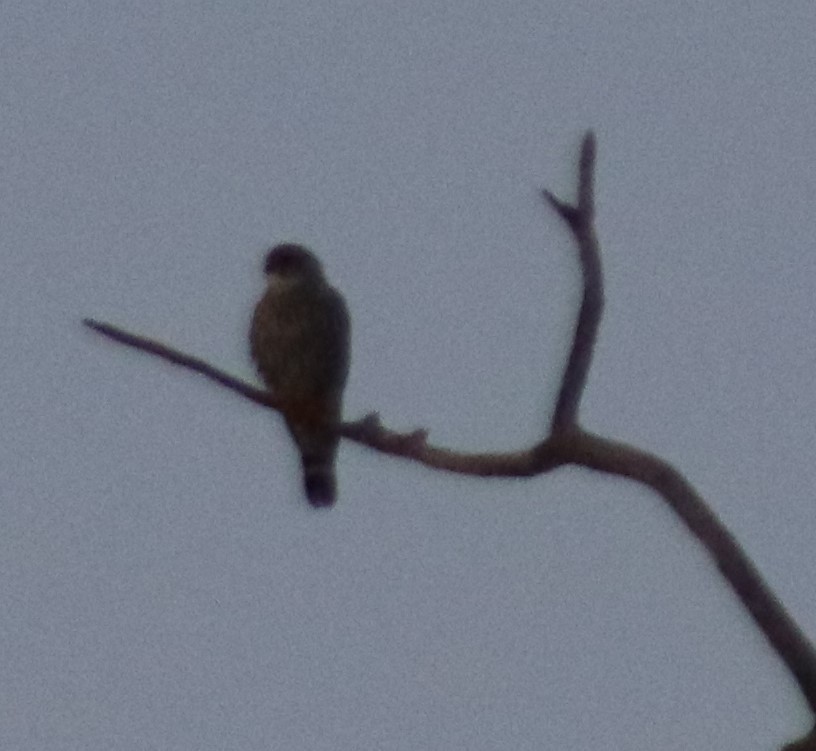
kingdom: Animalia
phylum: Chordata
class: Aves
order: Falconiformes
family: Falconidae
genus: Falco
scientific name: Falco sparverius
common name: American kestrel
